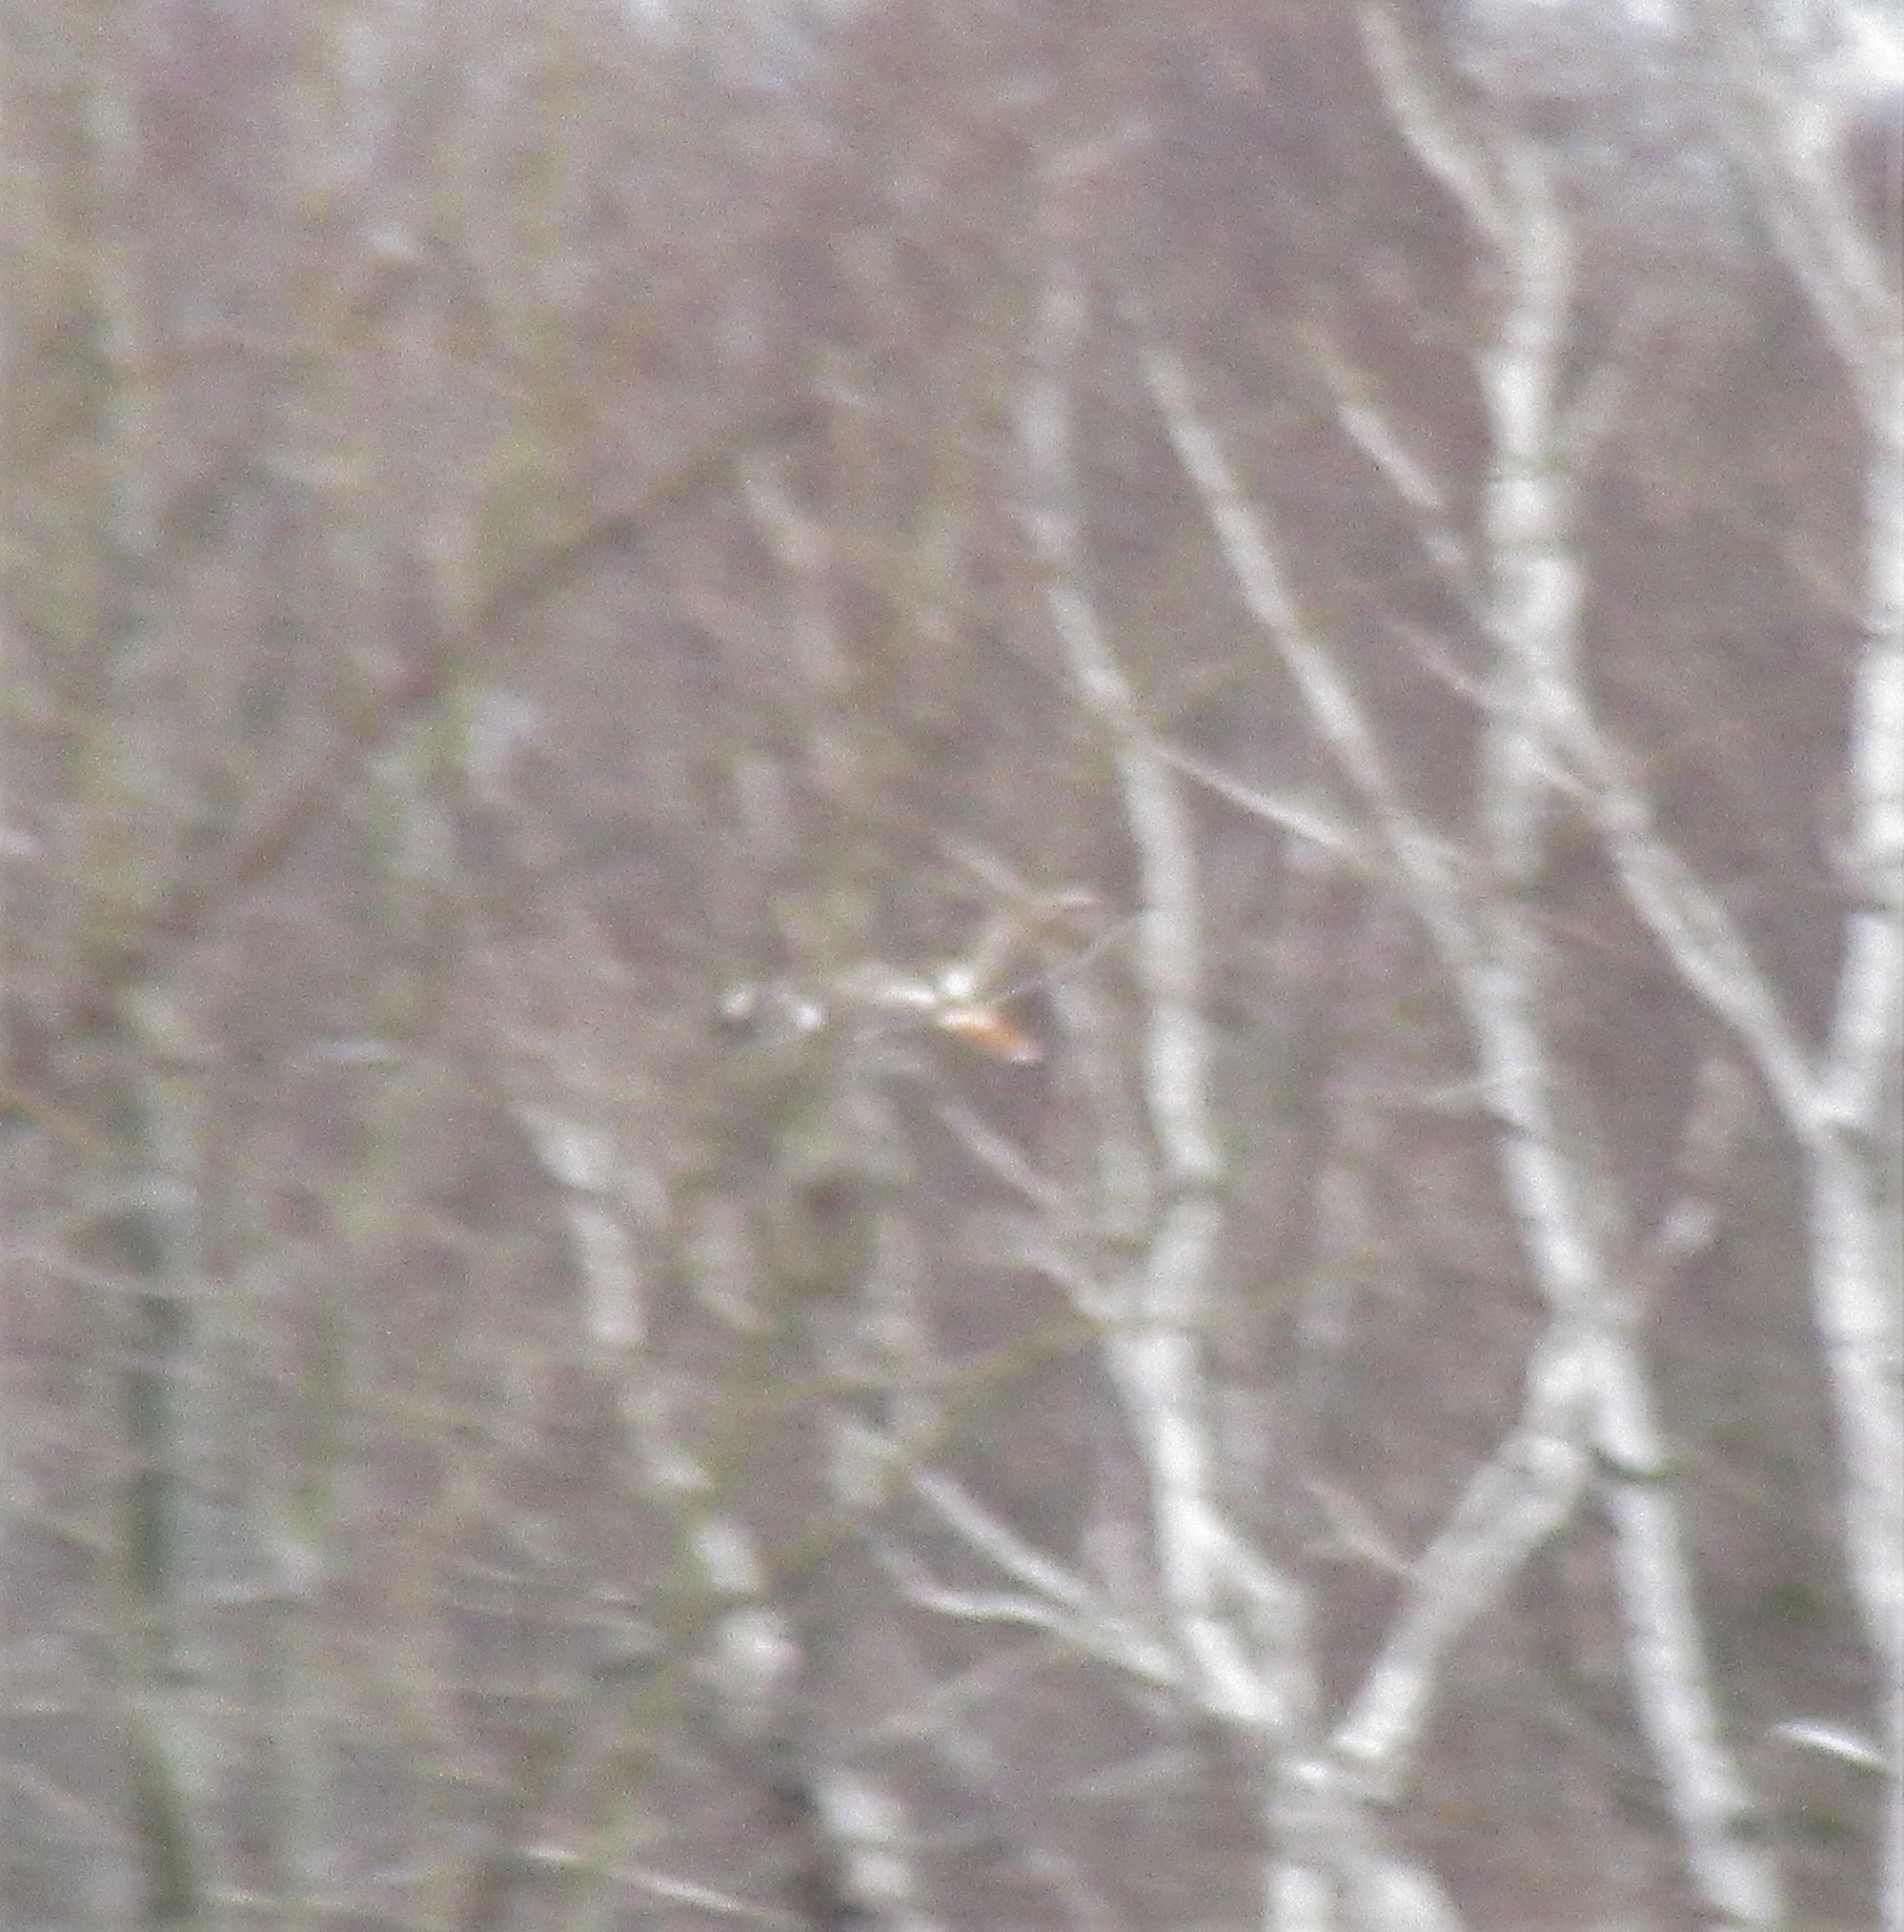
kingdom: Animalia
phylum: Chordata
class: Aves
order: Accipitriformes
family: Accipitridae
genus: Buteo
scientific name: Buteo jamaicensis
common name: Red-tailed hawk
